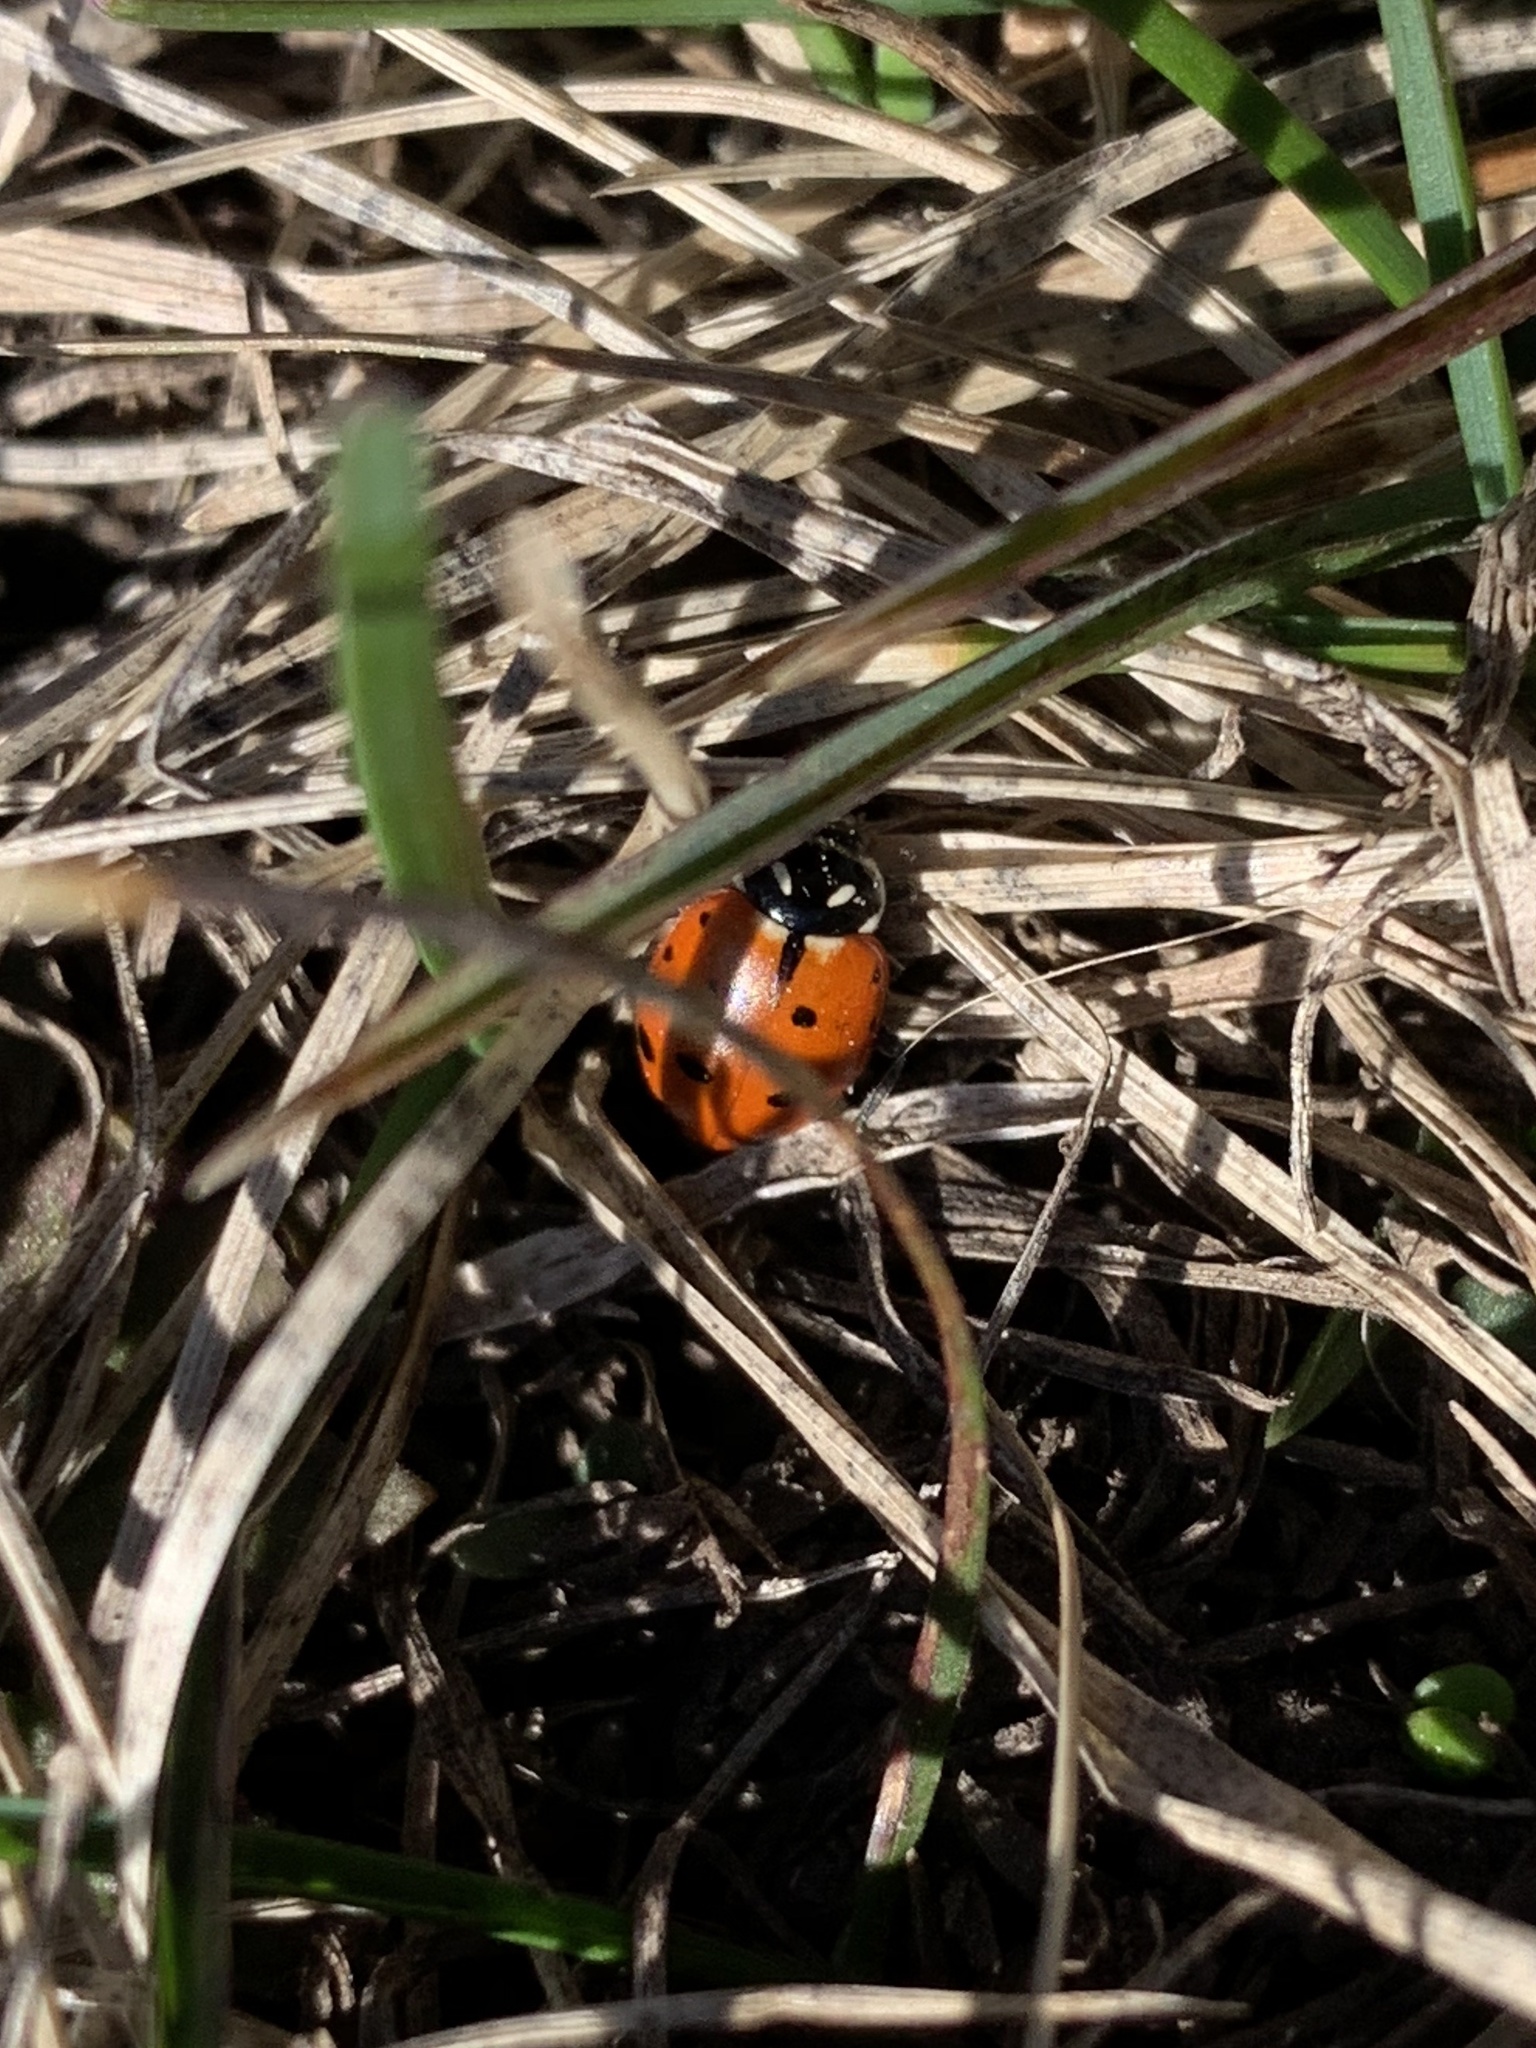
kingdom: Animalia
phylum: Arthropoda
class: Insecta
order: Coleoptera
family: Coccinellidae
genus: Hippodamia
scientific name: Hippodamia convergens
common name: Convergent lady beetle
